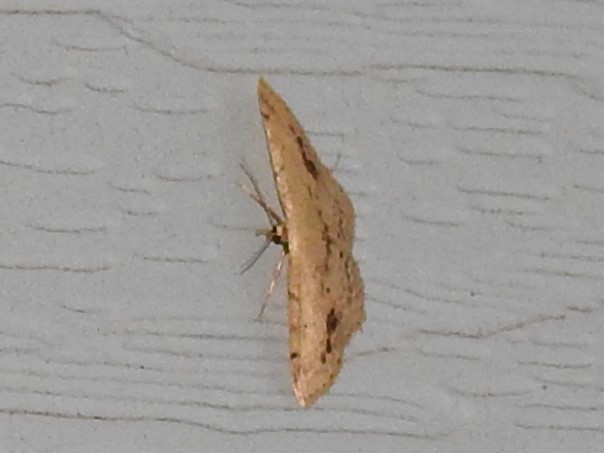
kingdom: Animalia
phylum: Arthropoda
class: Insecta
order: Lepidoptera
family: Geometridae
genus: Idaea
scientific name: Idaea dimidiata
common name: Single-dotted wave
